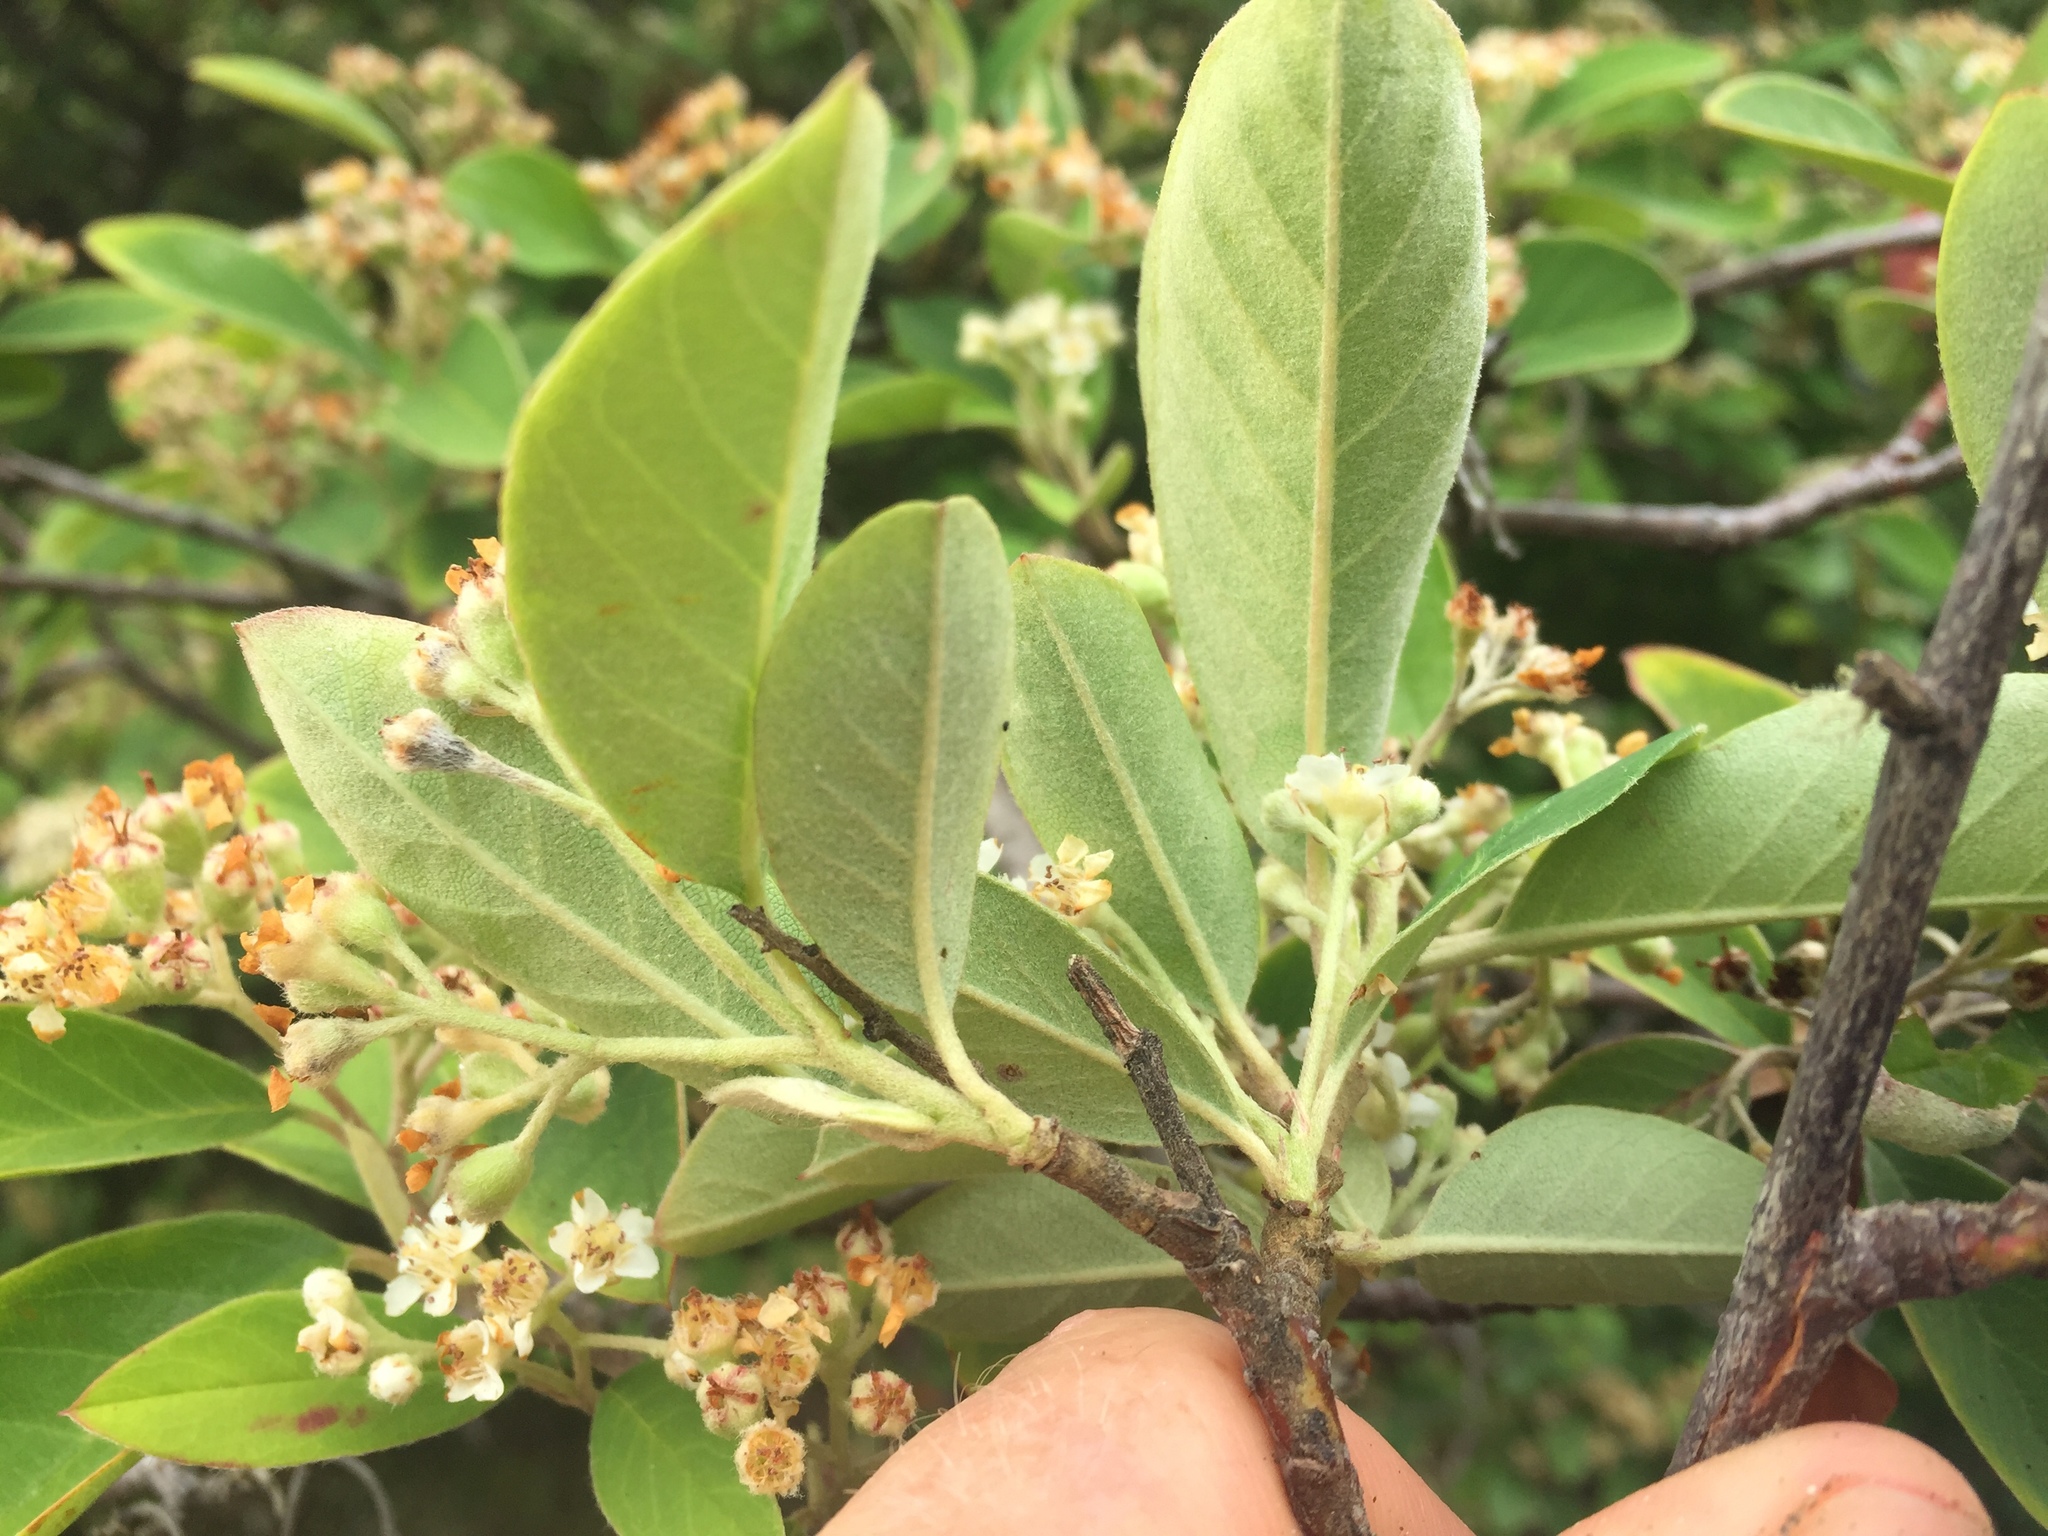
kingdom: Plantae
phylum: Tracheophyta
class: Magnoliopsida
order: Rosales
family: Rosaceae
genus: Cotoneaster
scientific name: Cotoneaster glaucophyllus
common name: Glaucous cotoneaster
